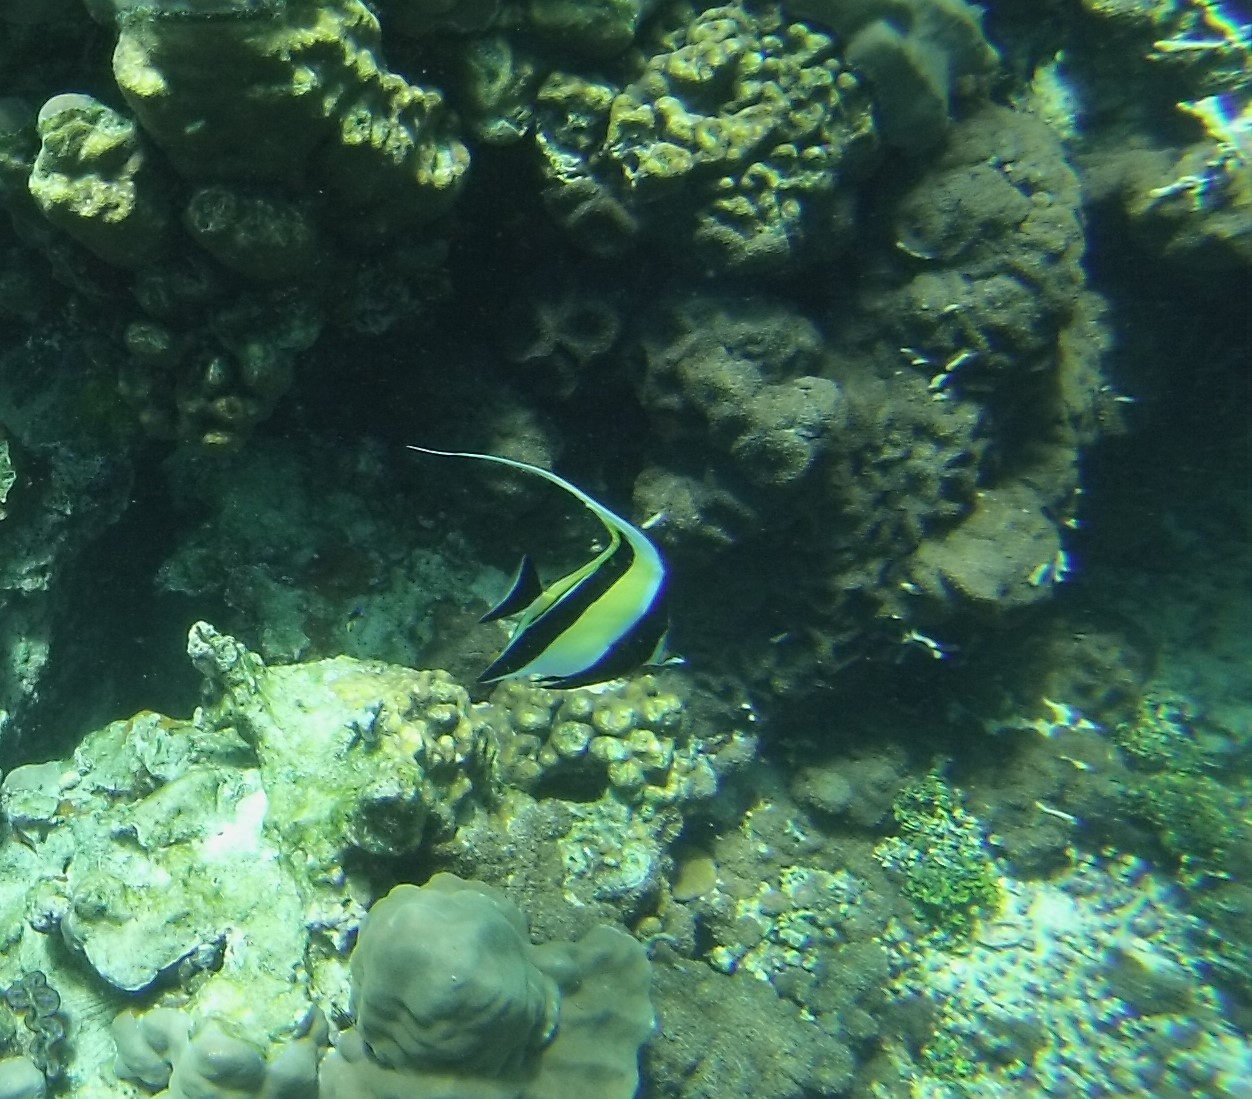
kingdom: Animalia
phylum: Chordata
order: Perciformes
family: Zanclidae
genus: Zanclus
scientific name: Zanclus cornutus
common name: Moorish idol
